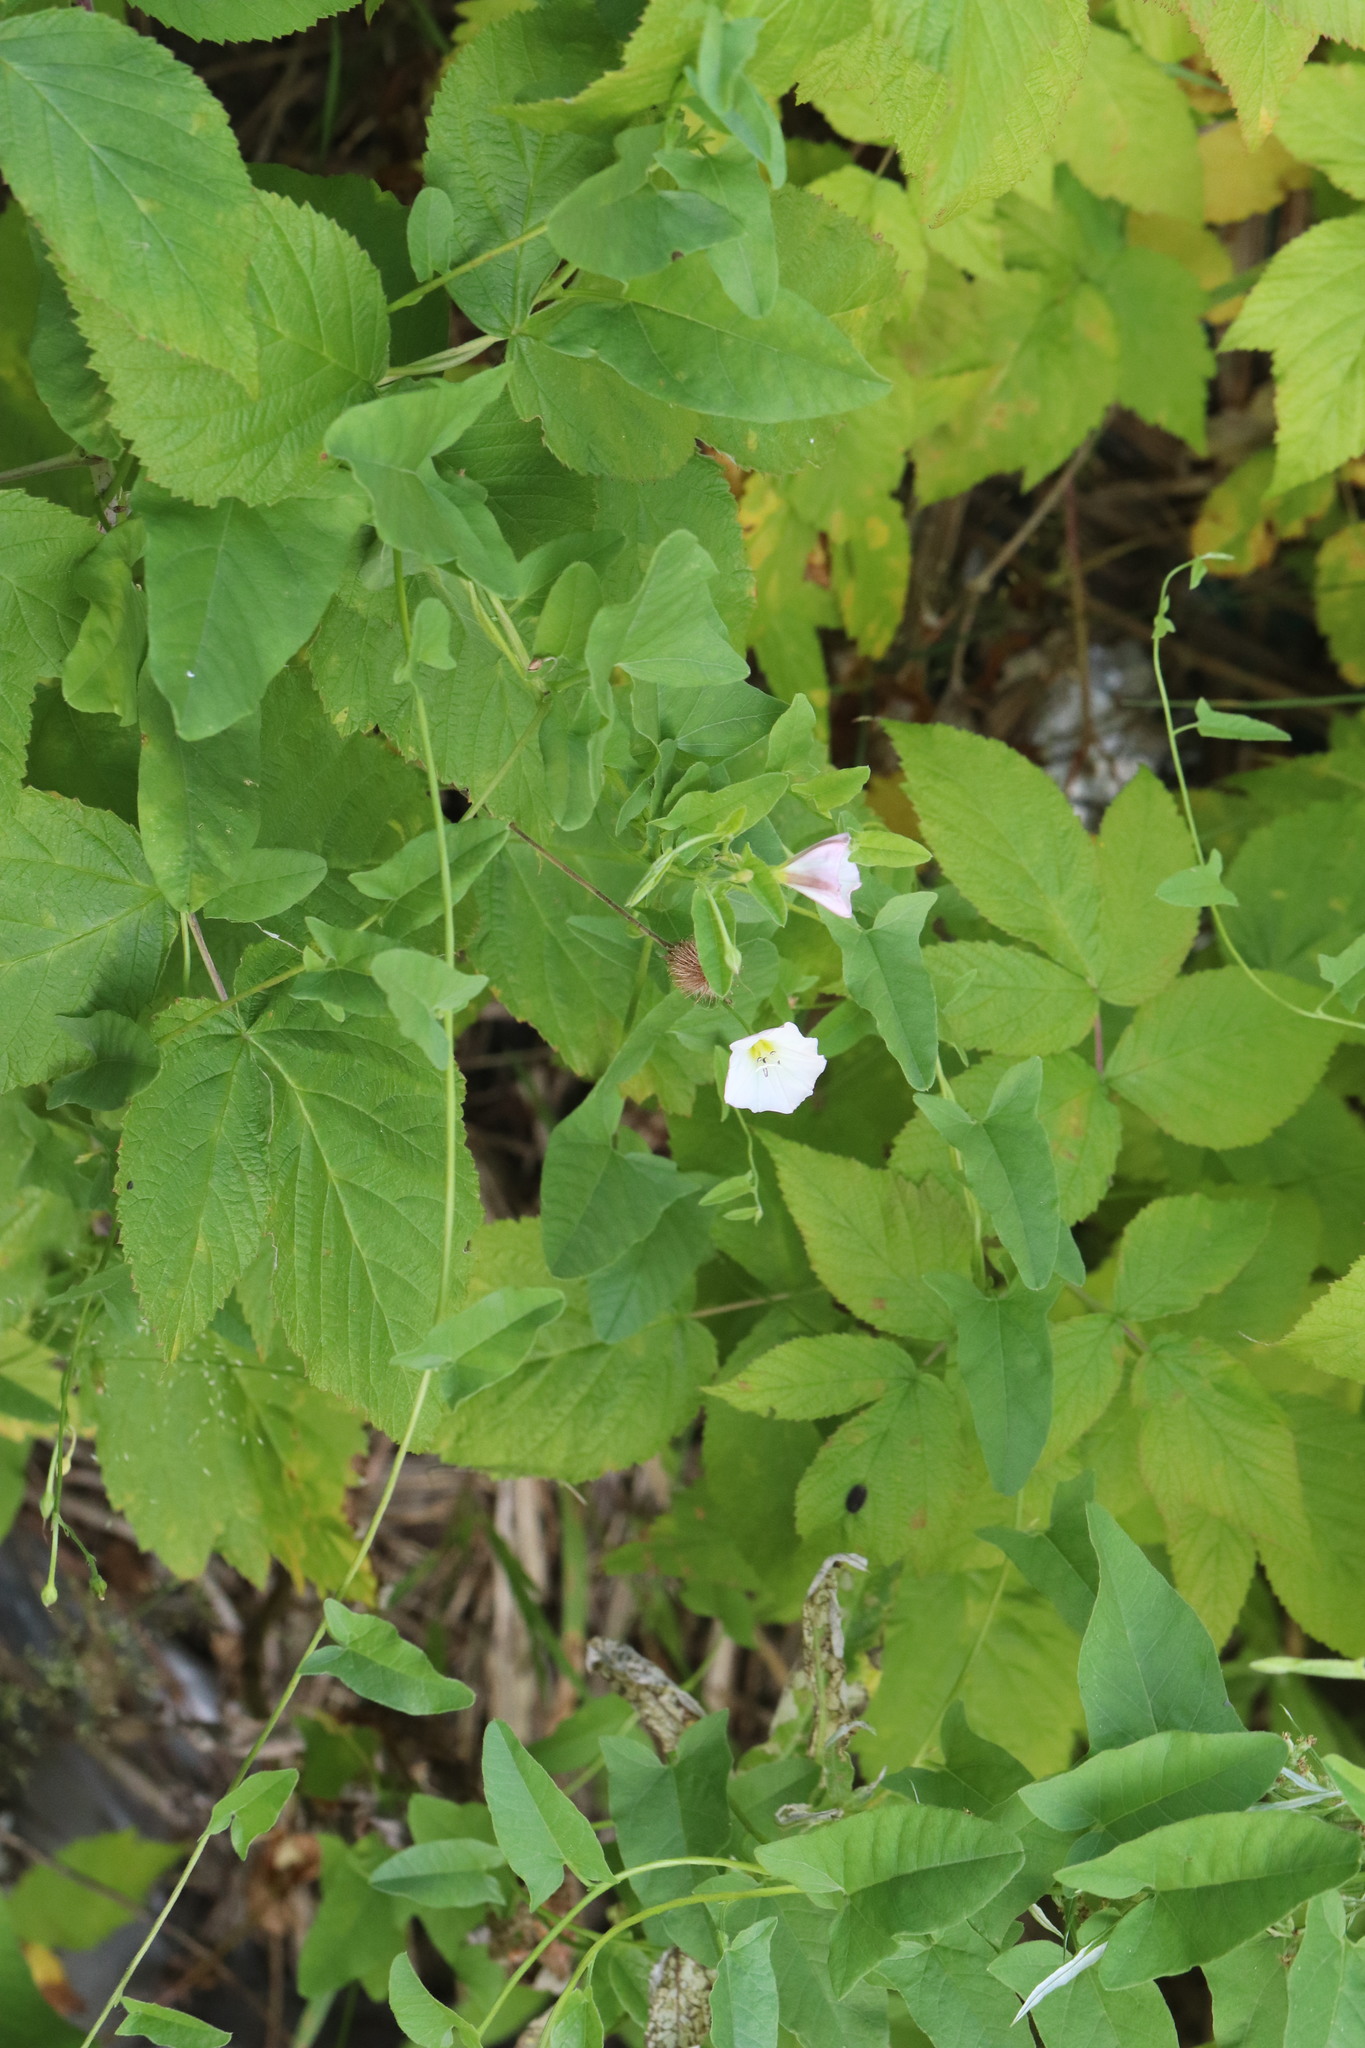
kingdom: Plantae
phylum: Tracheophyta
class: Magnoliopsida
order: Solanales
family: Convolvulaceae
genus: Convolvulus
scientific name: Convolvulus arvensis
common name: Field bindweed
